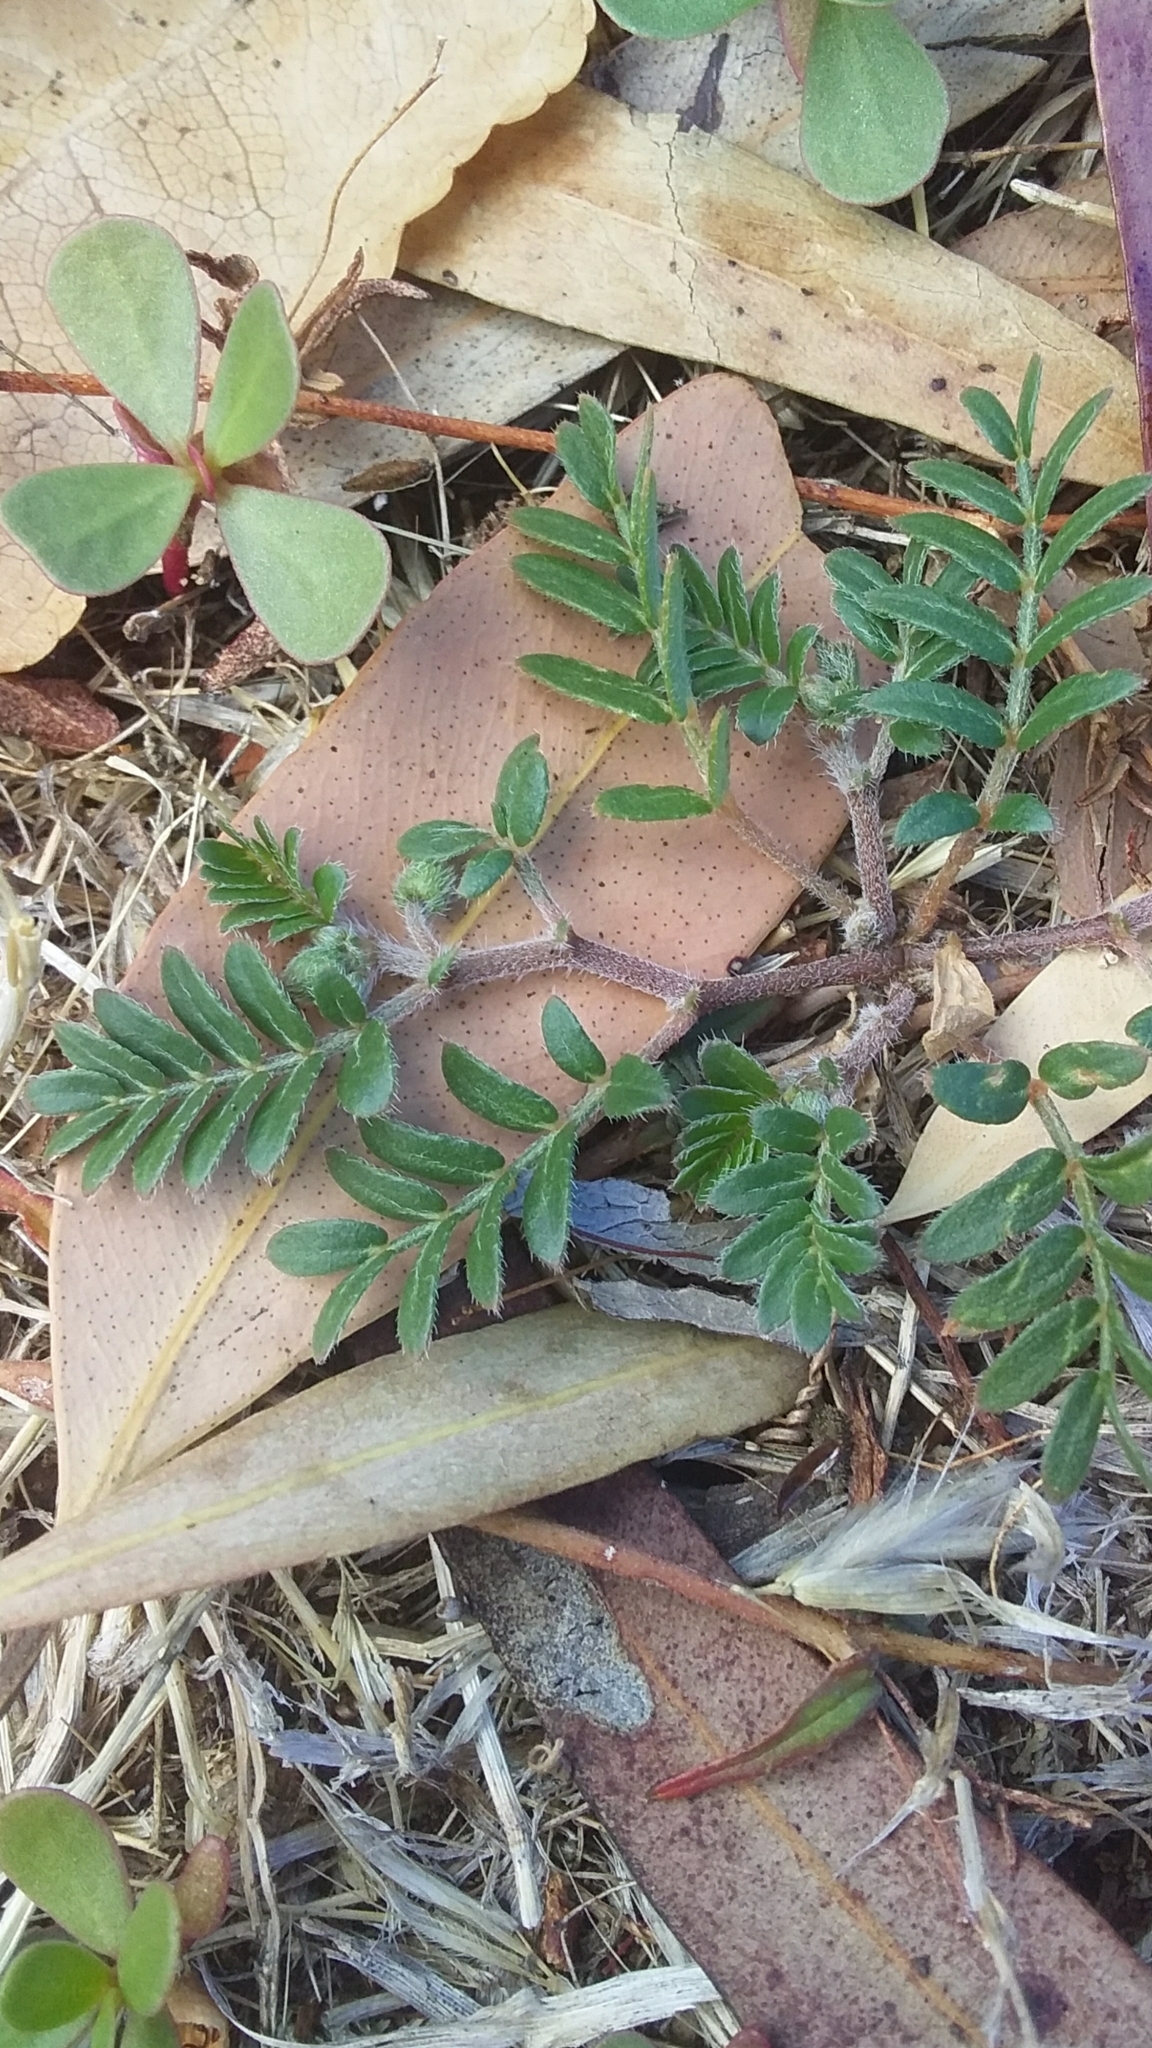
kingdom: Plantae
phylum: Tracheophyta
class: Magnoliopsida
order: Zygophyllales
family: Zygophyllaceae
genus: Tribulus
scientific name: Tribulus terrestris
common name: Puncturevine
